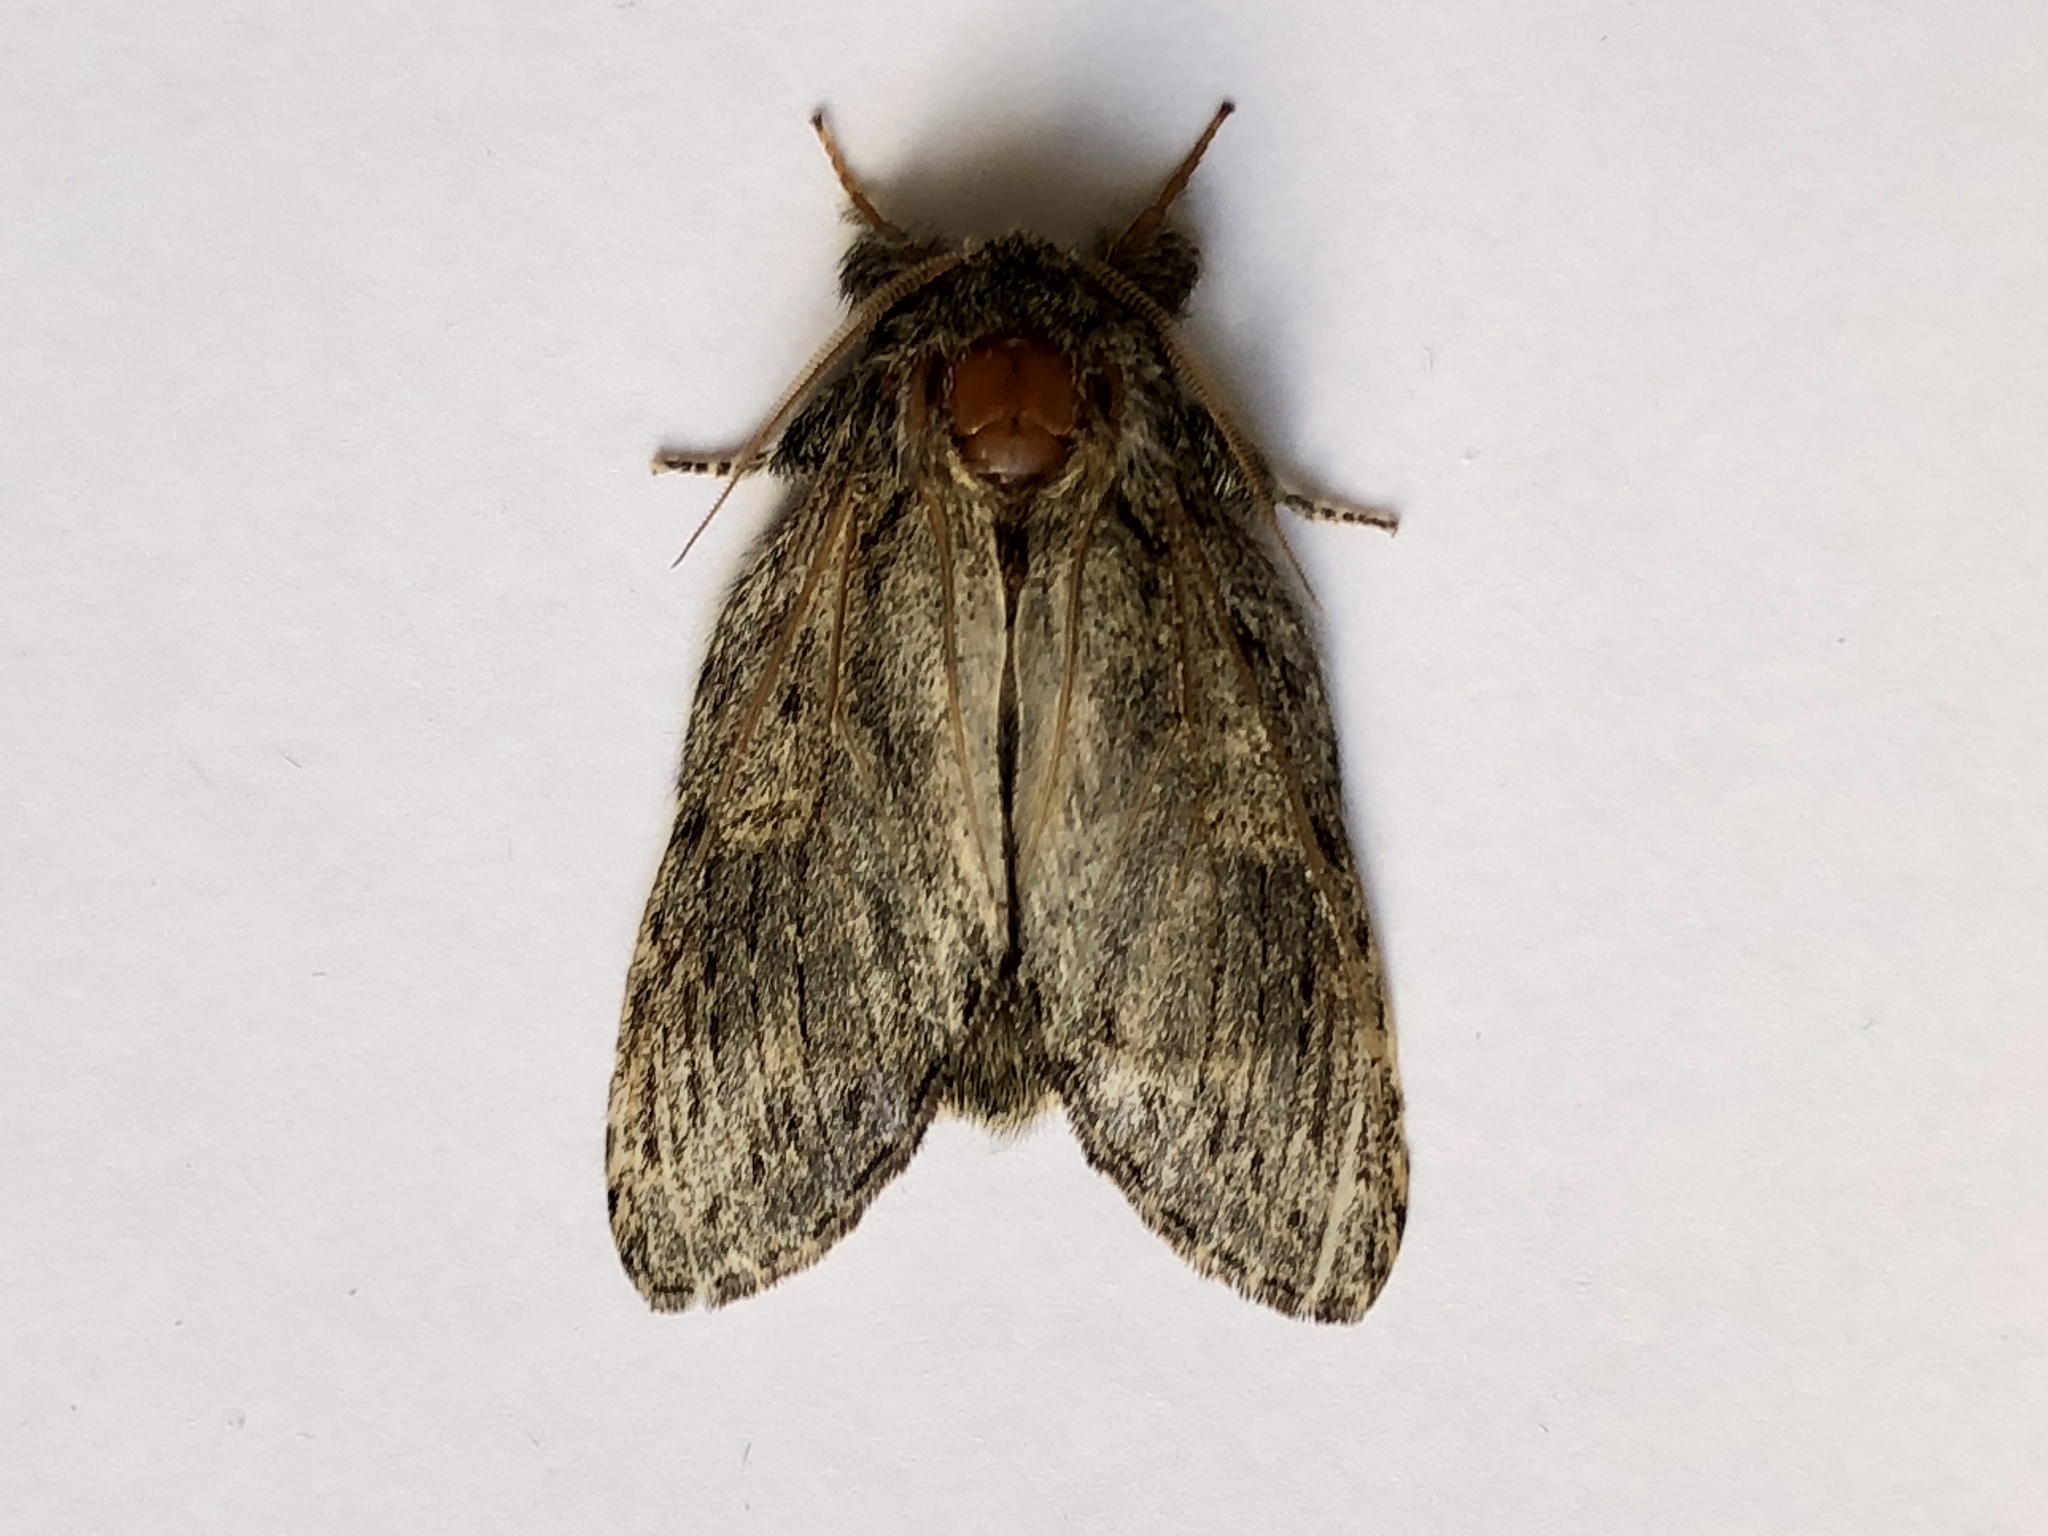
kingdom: Animalia
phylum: Arthropoda
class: Insecta
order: Lepidoptera
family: Notodontidae
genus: Peridea
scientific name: Peridea anceps
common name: Great prominent
